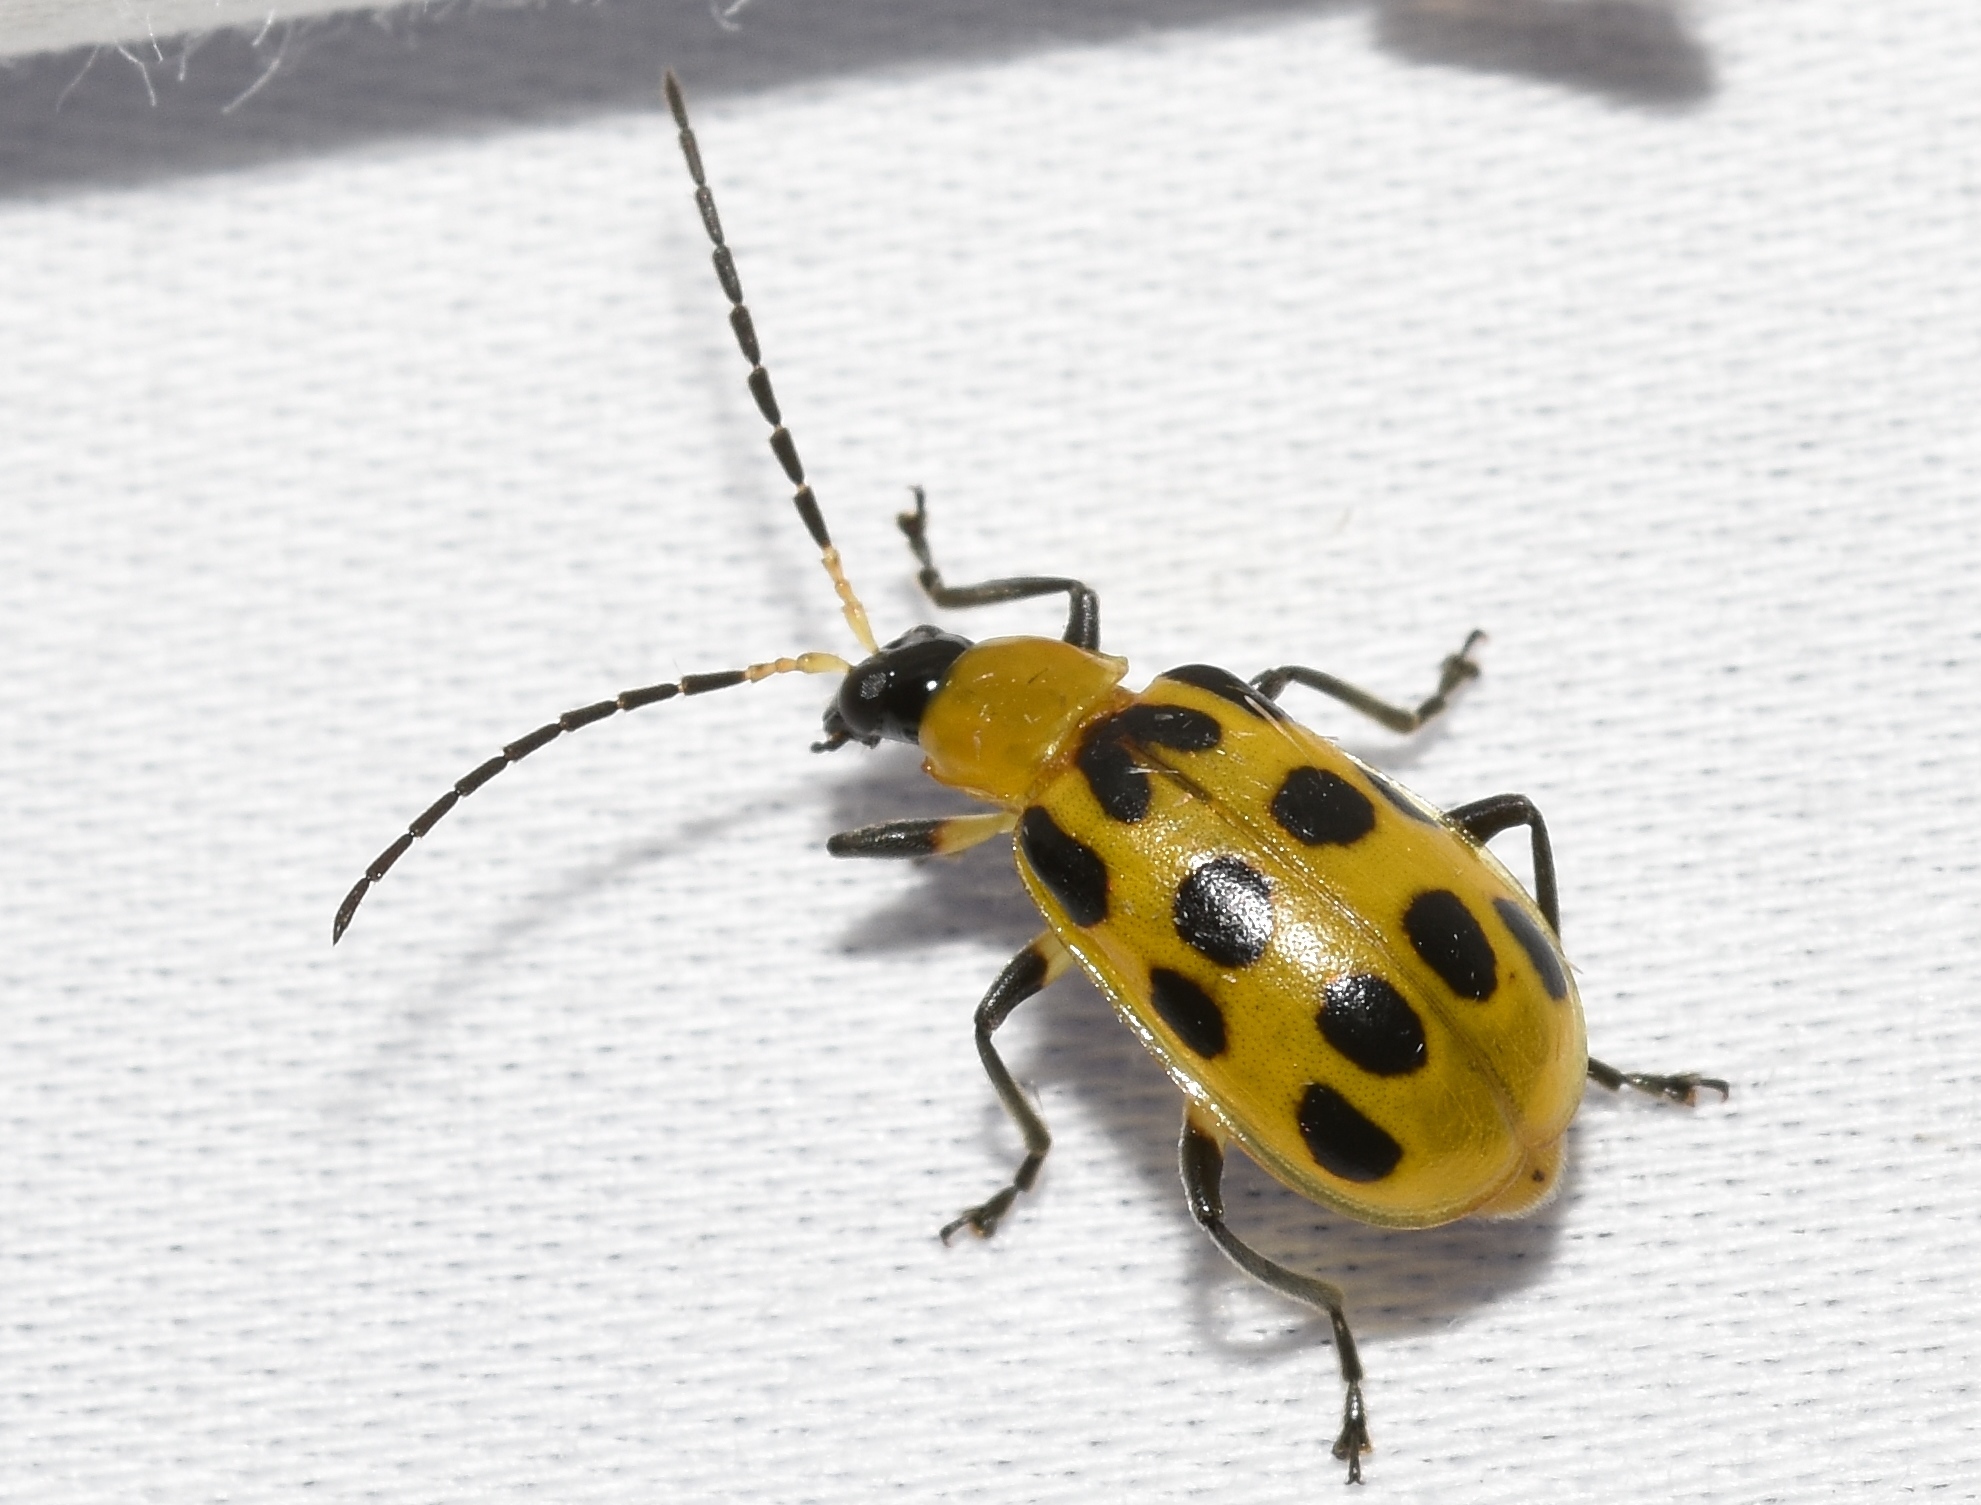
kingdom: Animalia
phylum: Arthropoda
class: Insecta
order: Coleoptera
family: Chrysomelidae
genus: Diabrotica
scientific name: Diabrotica undecimpunctata
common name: Spotted cucumber beetle
